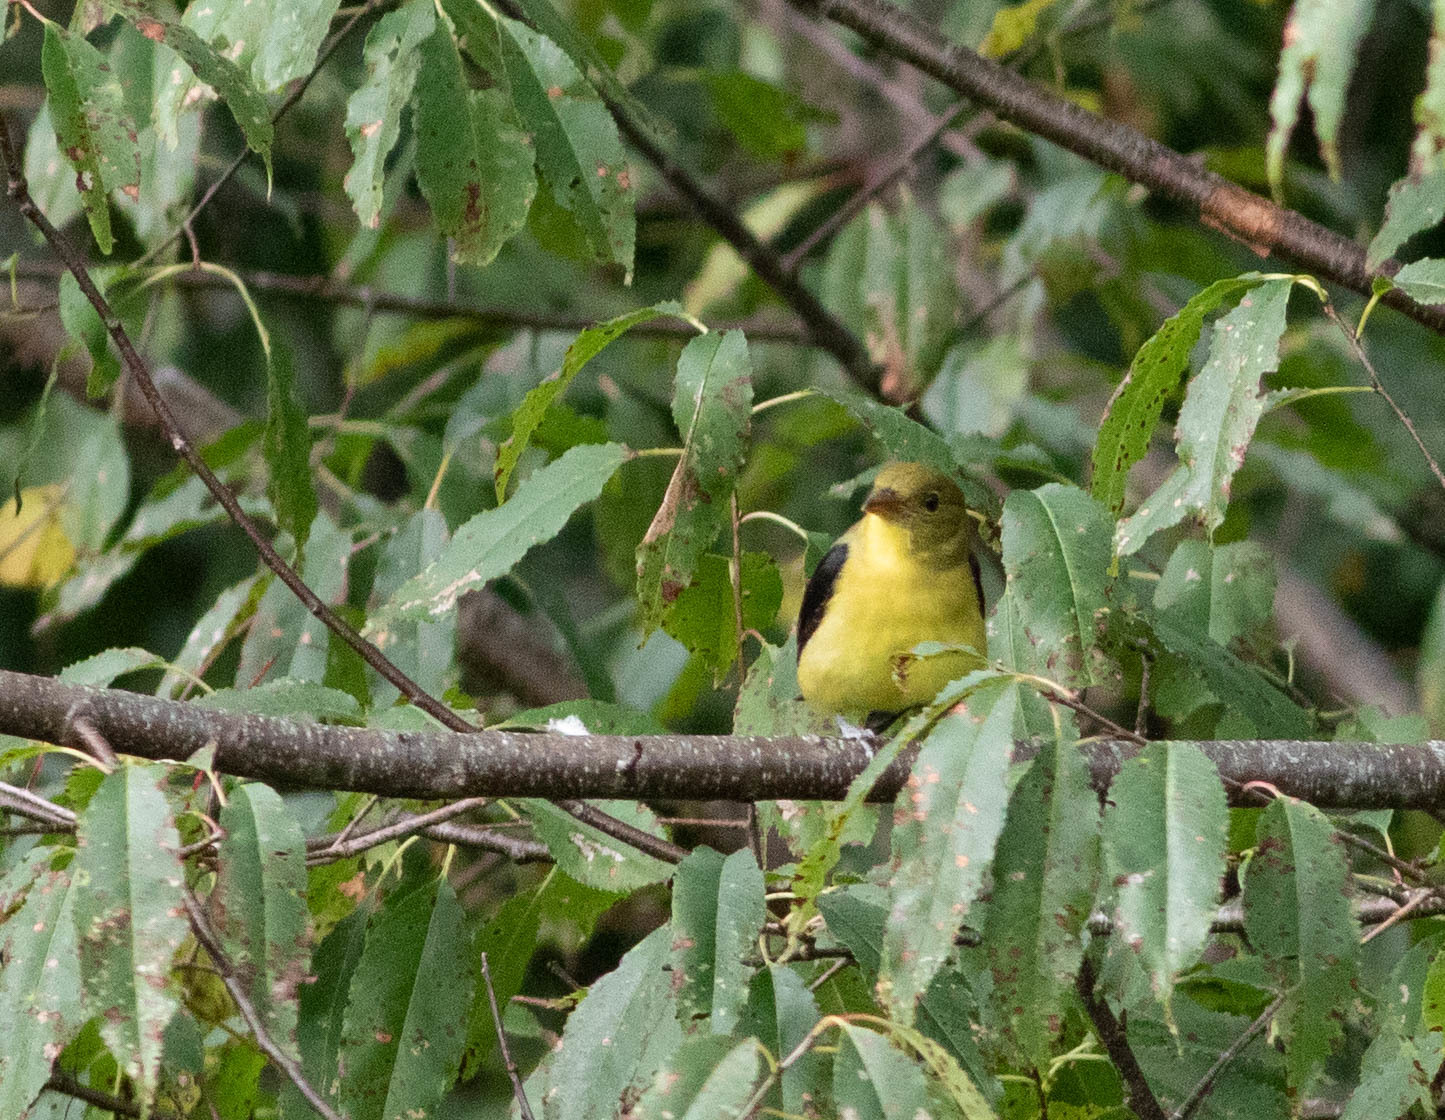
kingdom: Animalia
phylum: Chordata
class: Aves
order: Passeriformes
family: Cardinalidae
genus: Piranga
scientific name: Piranga olivacea
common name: Scarlet tanager
